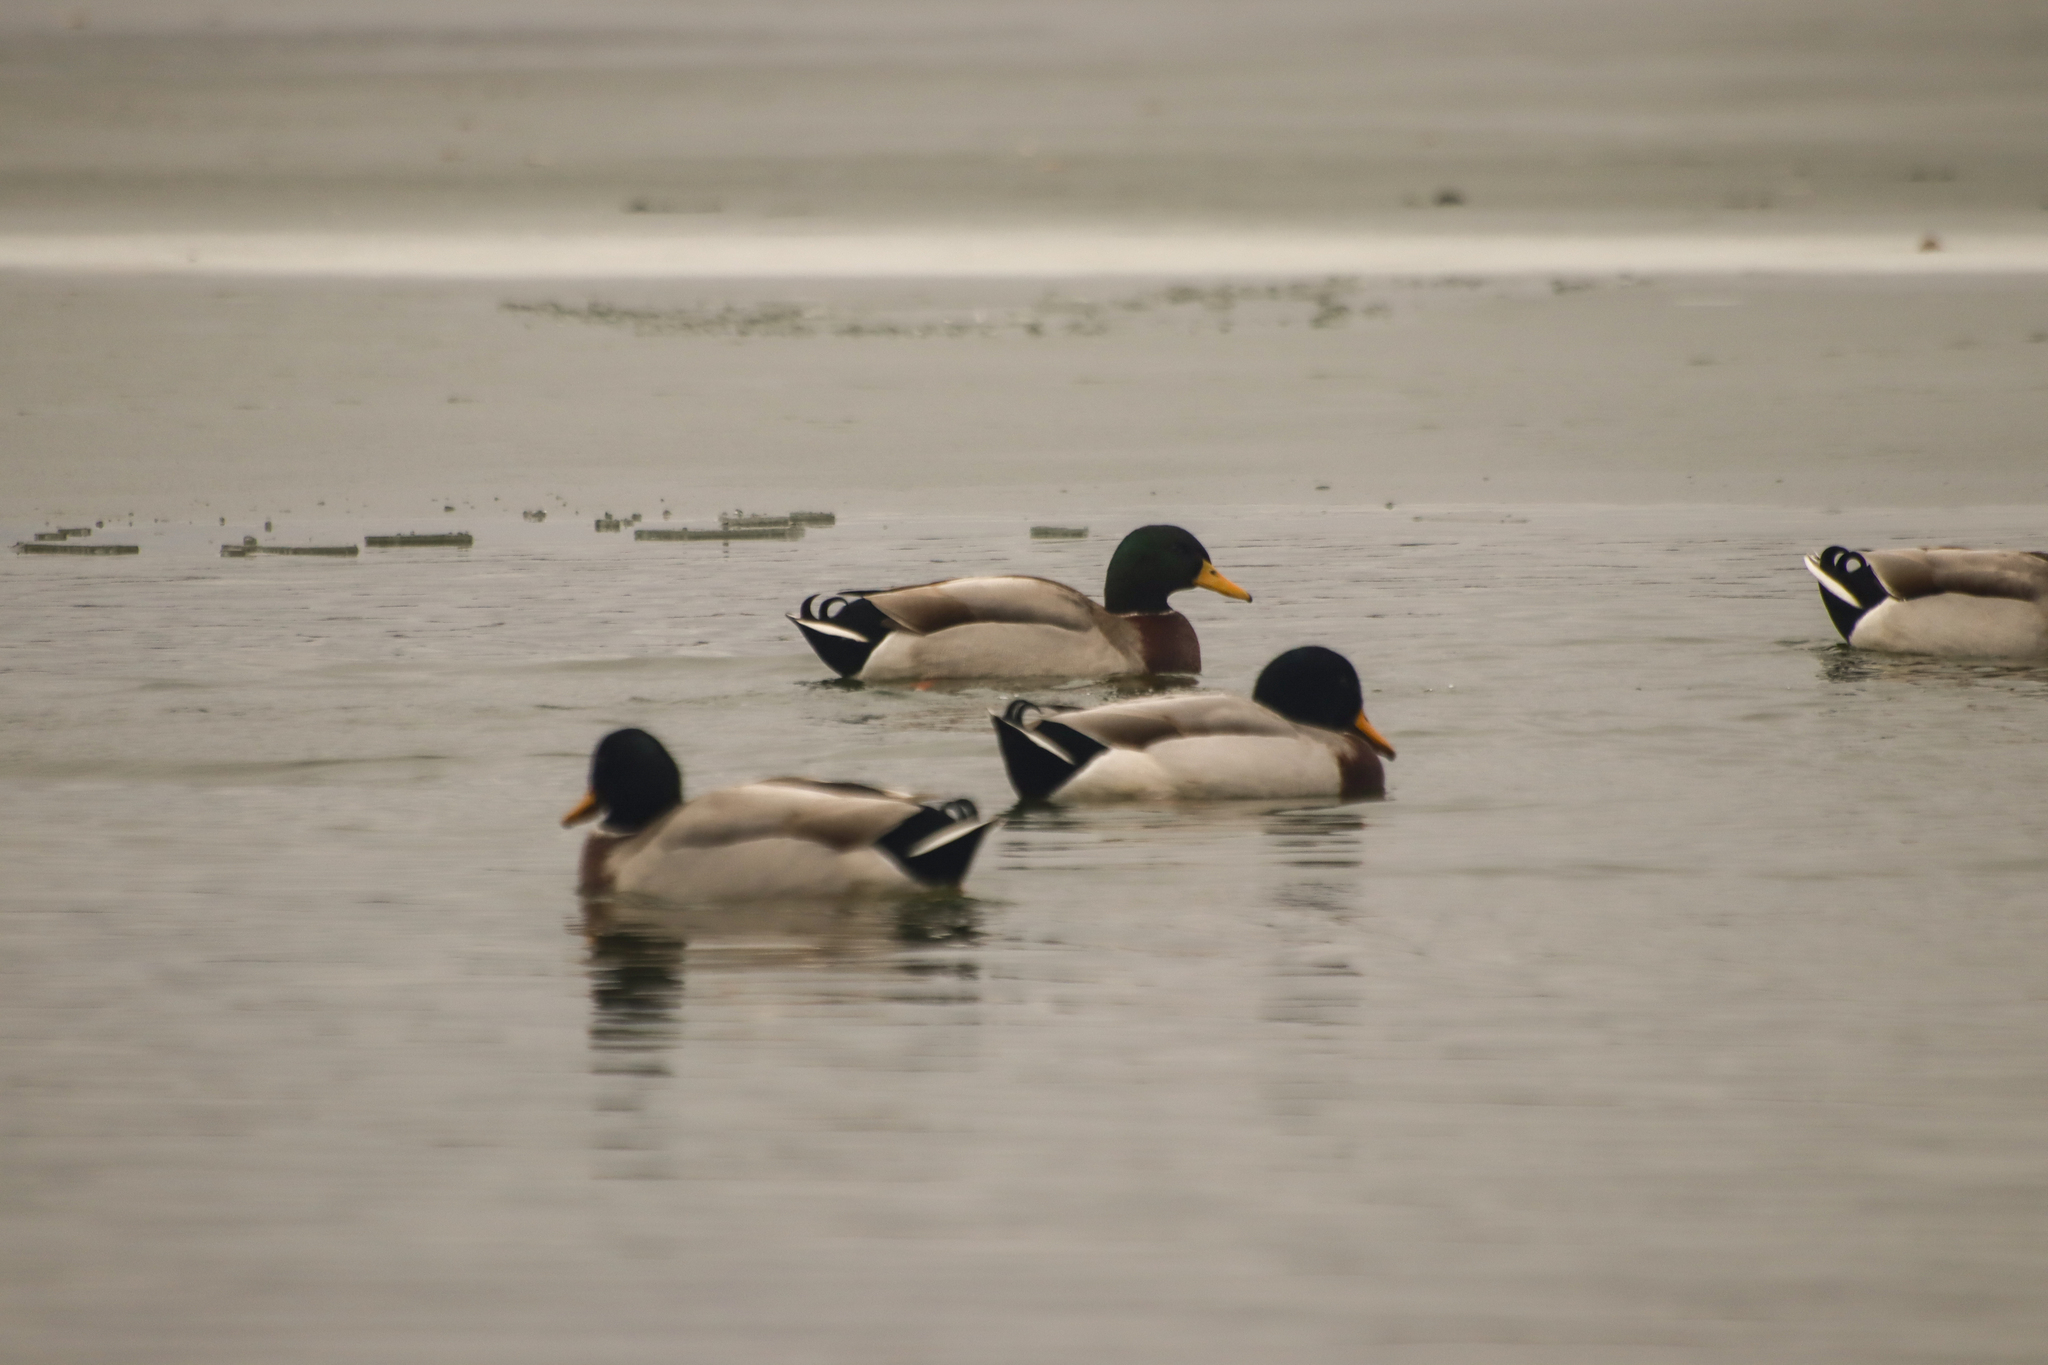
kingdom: Animalia
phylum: Chordata
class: Aves
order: Anseriformes
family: Anatidae
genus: Anas
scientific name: Anas platyrhynchos
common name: Mallard
